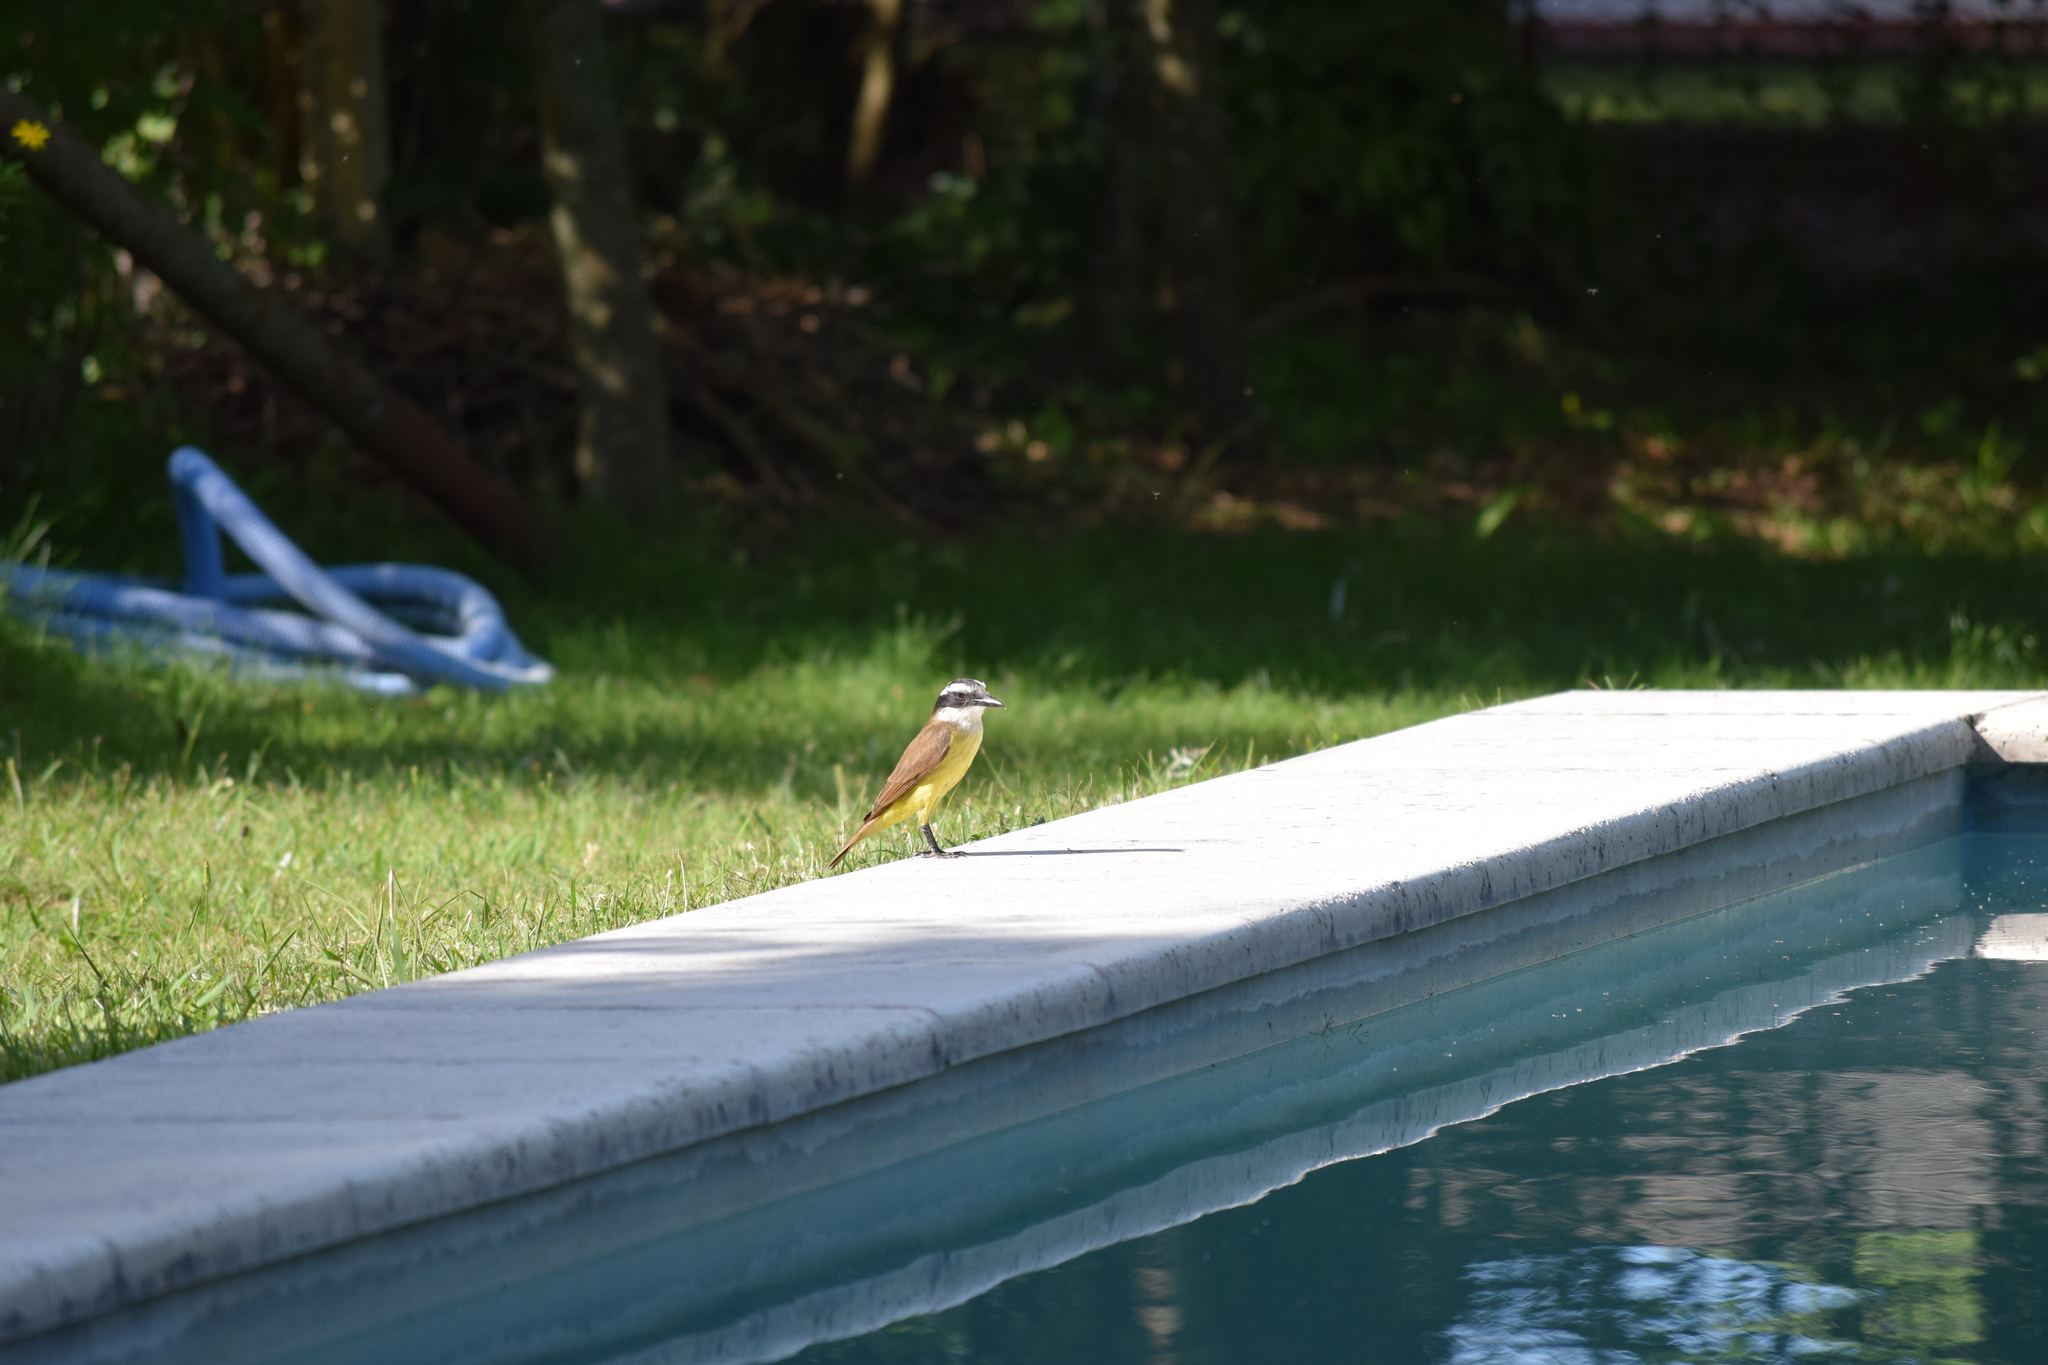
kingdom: Animalia
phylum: Chordata
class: Aves
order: Passeriformes
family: Tyrannidae
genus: Pitangus
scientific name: Pitangus sulphuratus
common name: Great kiskadee
